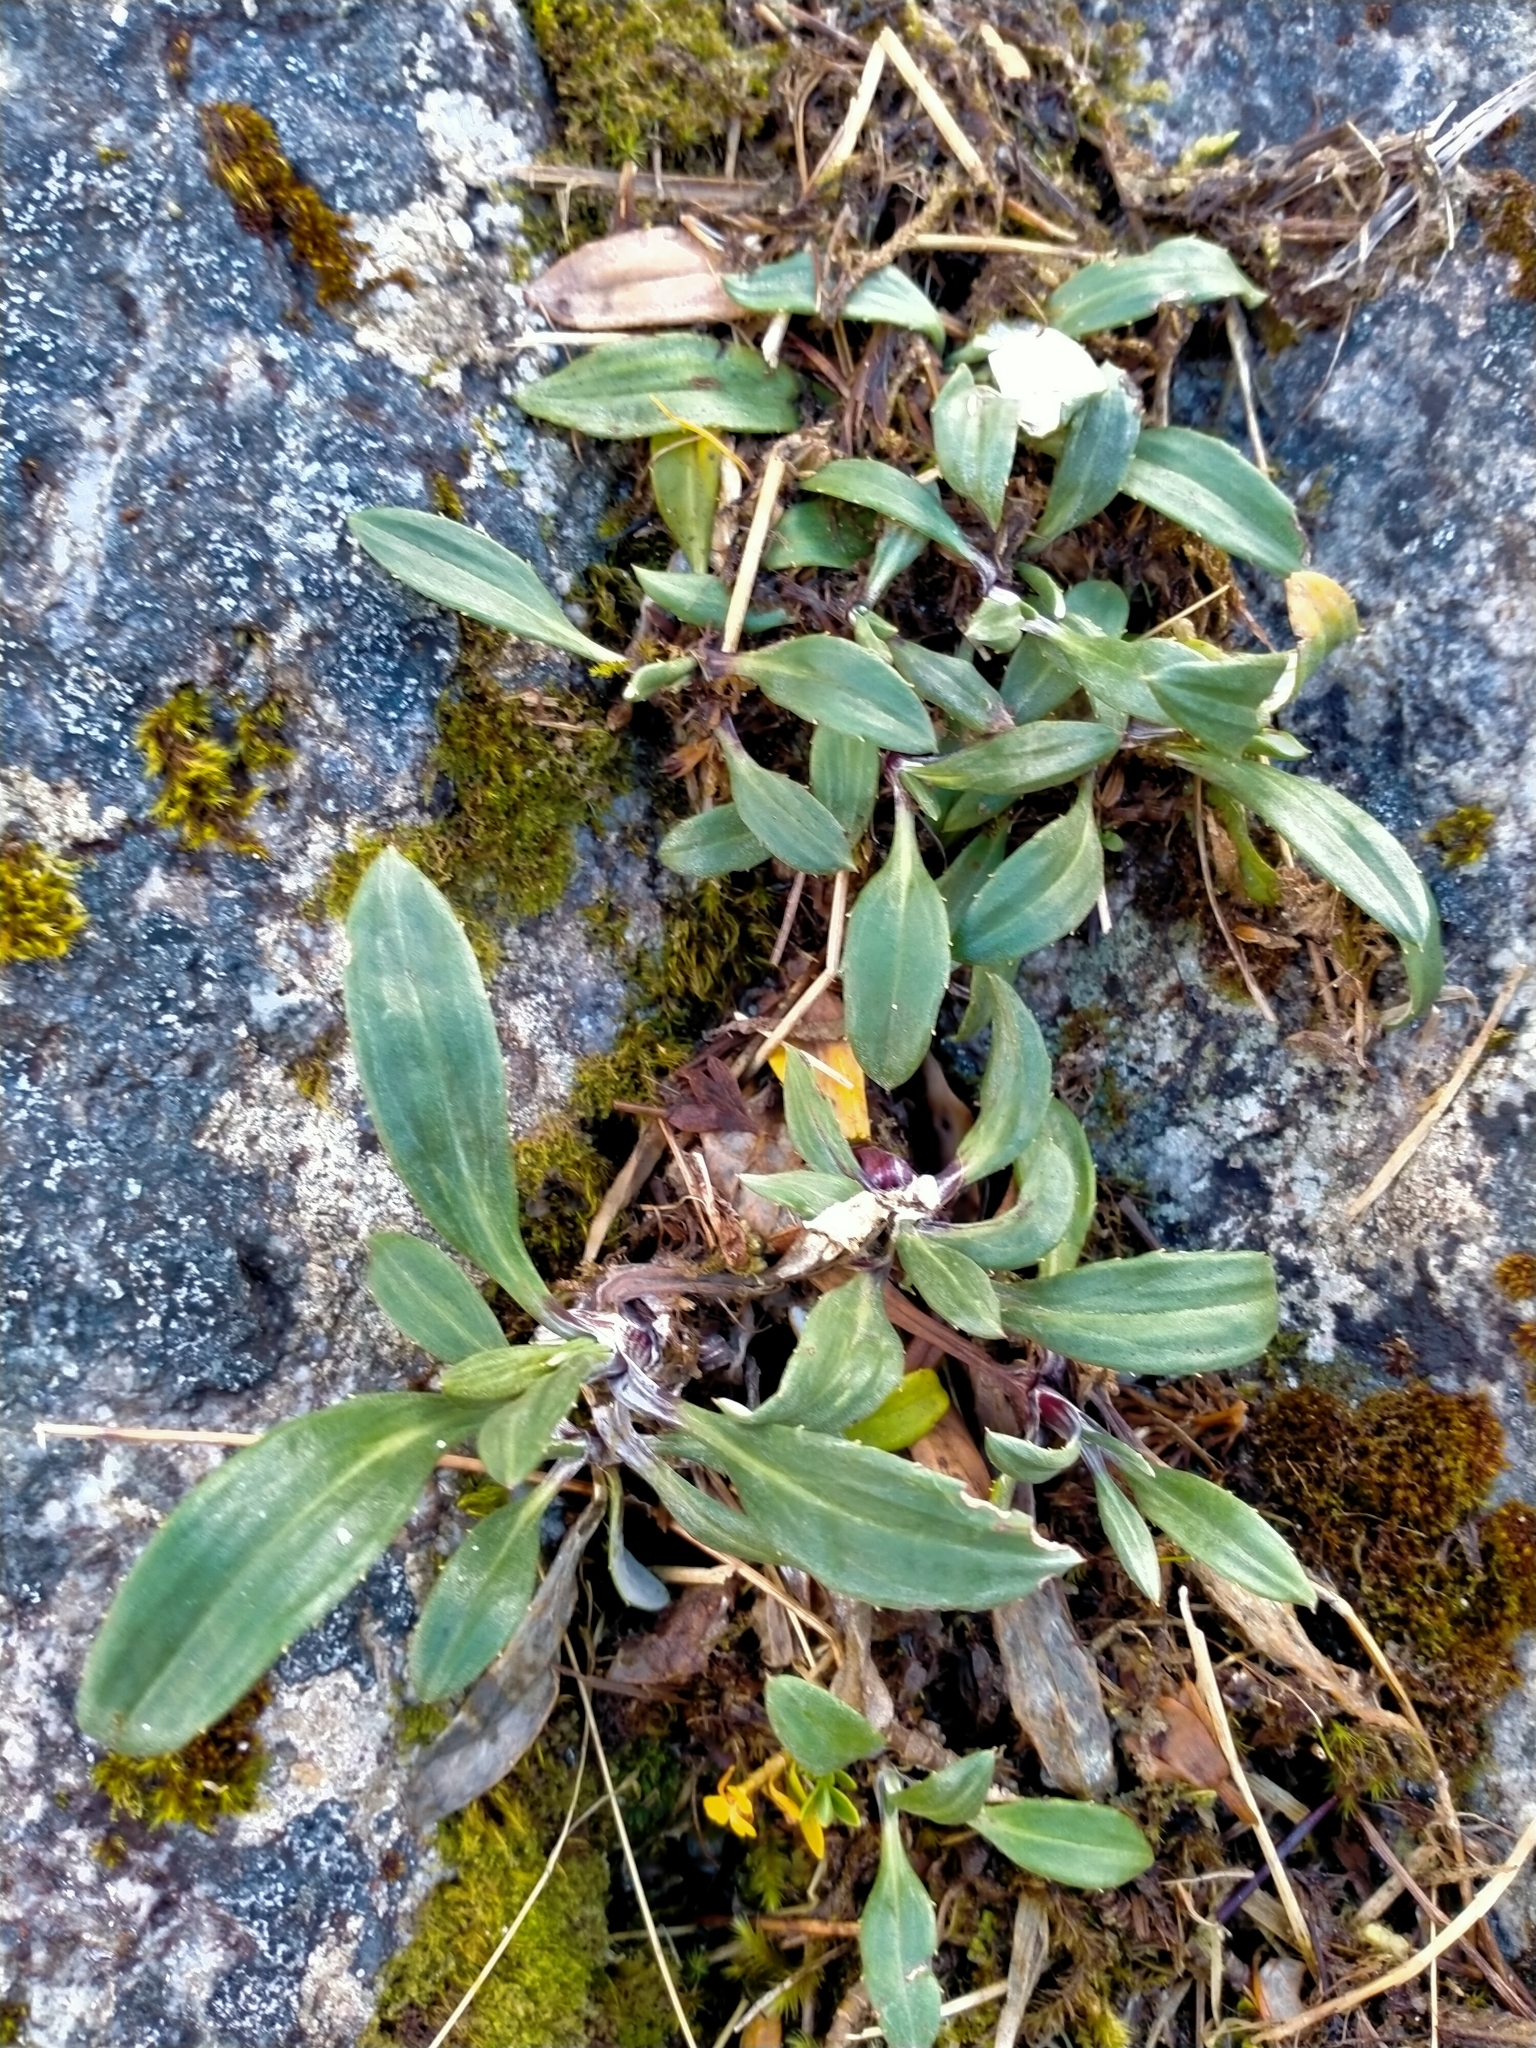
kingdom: Plantae
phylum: Tracheophyta
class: Magnoliopsida
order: Asterales
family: Asteraceae
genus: Celmisia
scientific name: Celmisia durietzii
